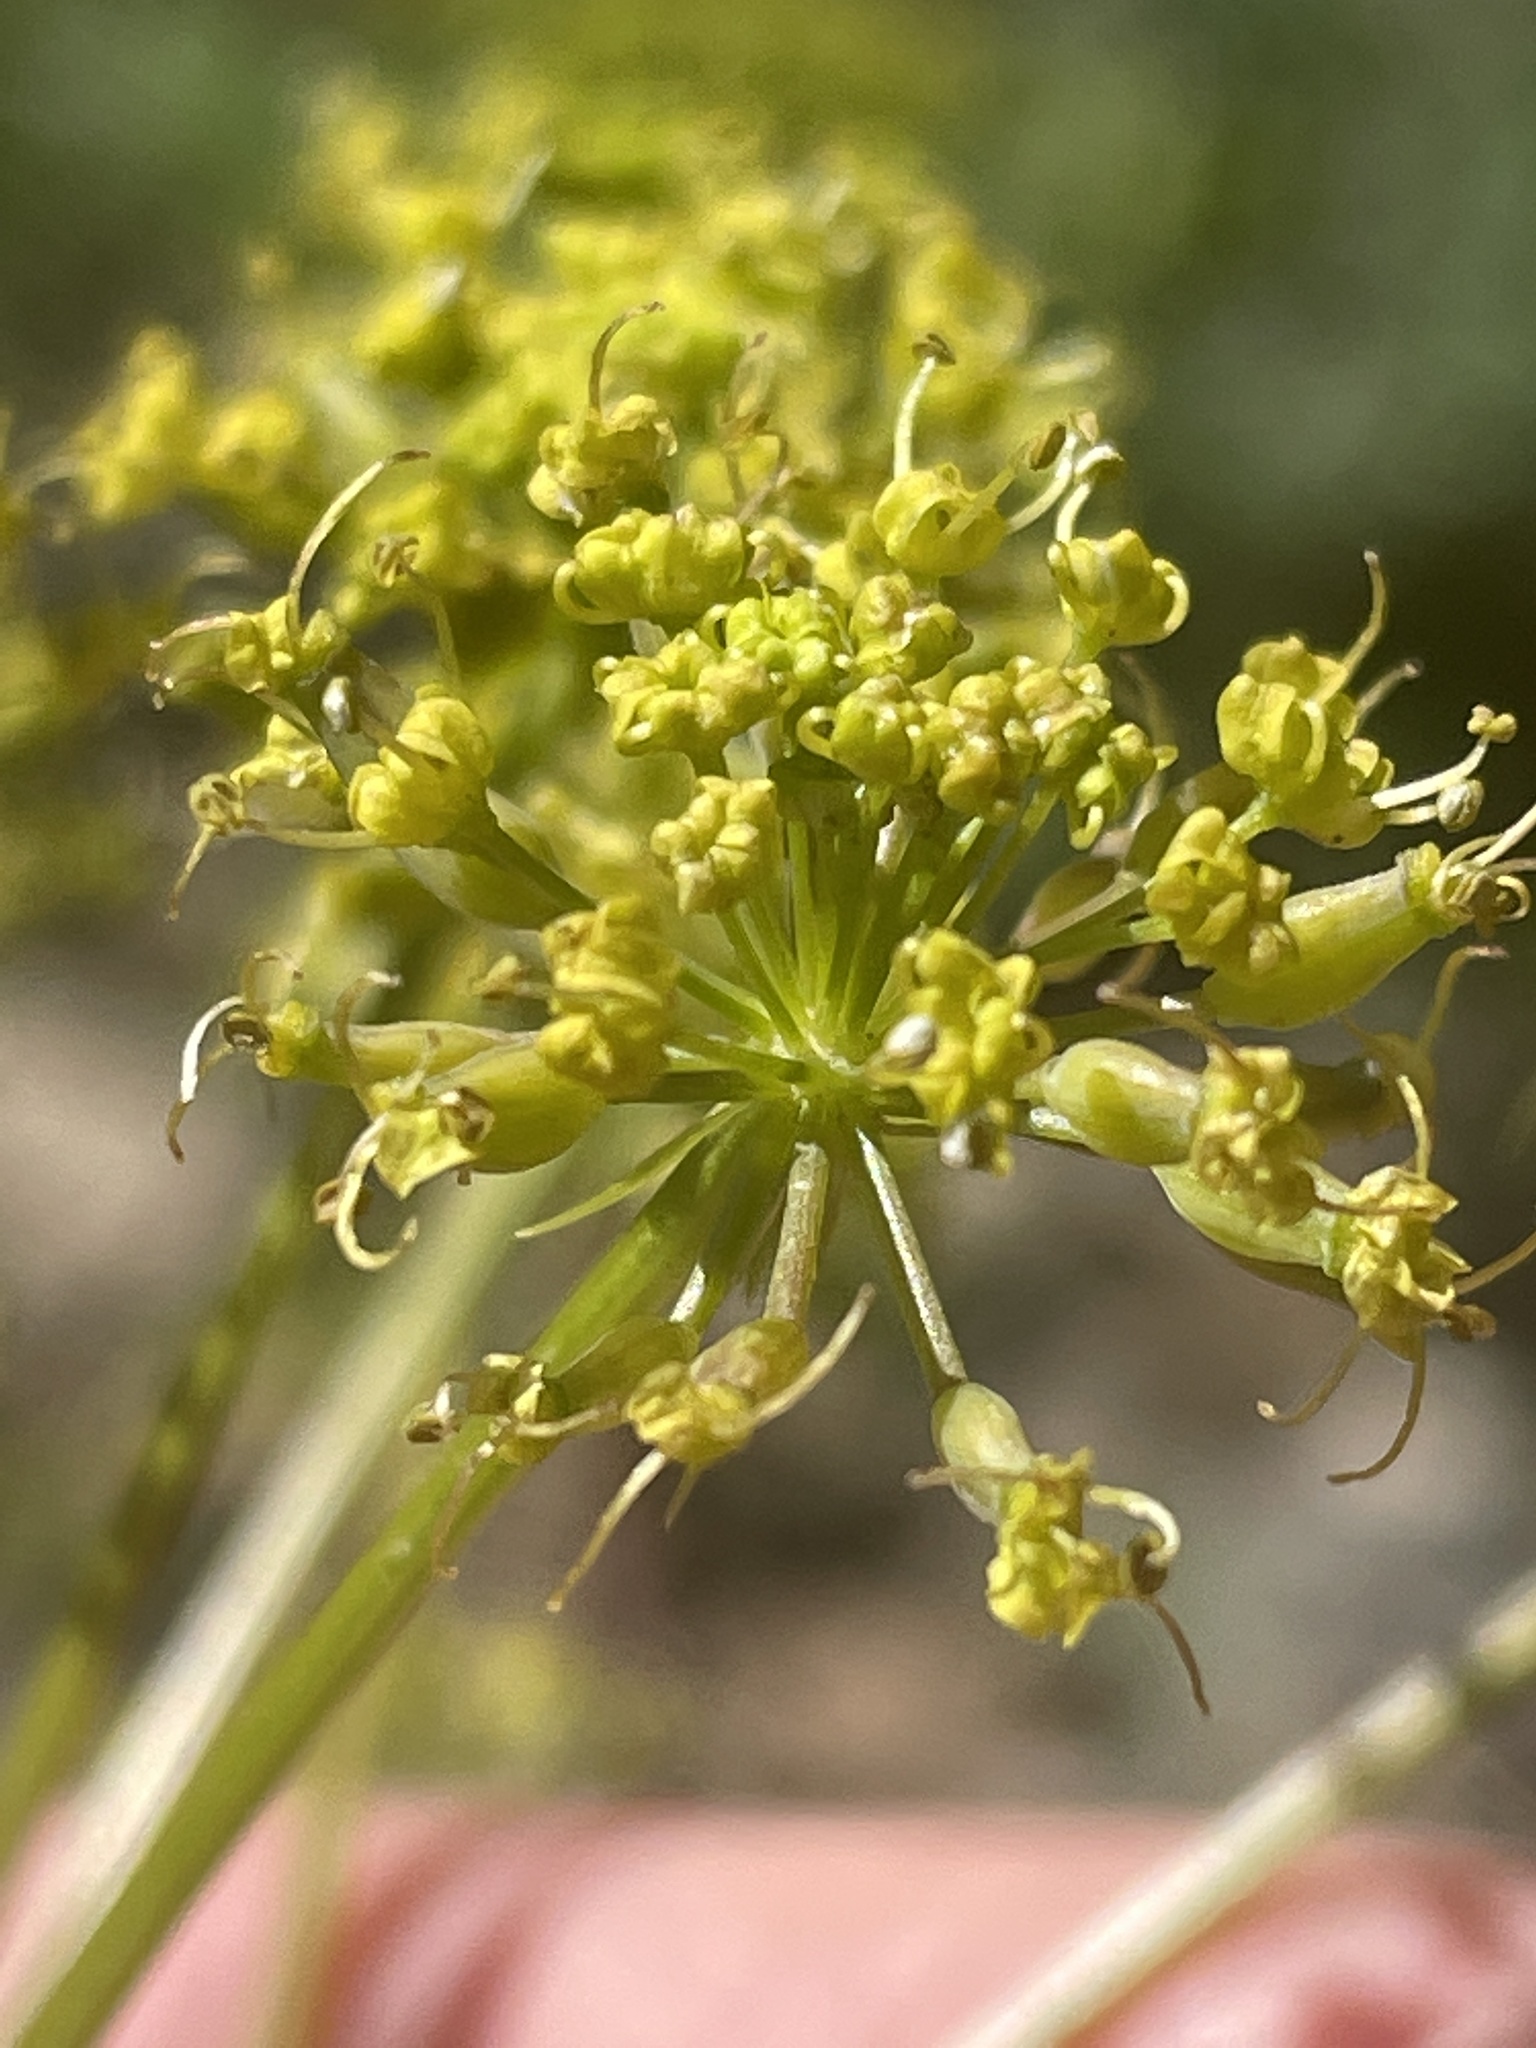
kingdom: Plantae
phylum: Tracheophyta
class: Magnoliopsida
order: Apiales
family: Apiaceae
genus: Lomatium
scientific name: Lomatium multifidum
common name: Carrot-leaved biscuitroot
